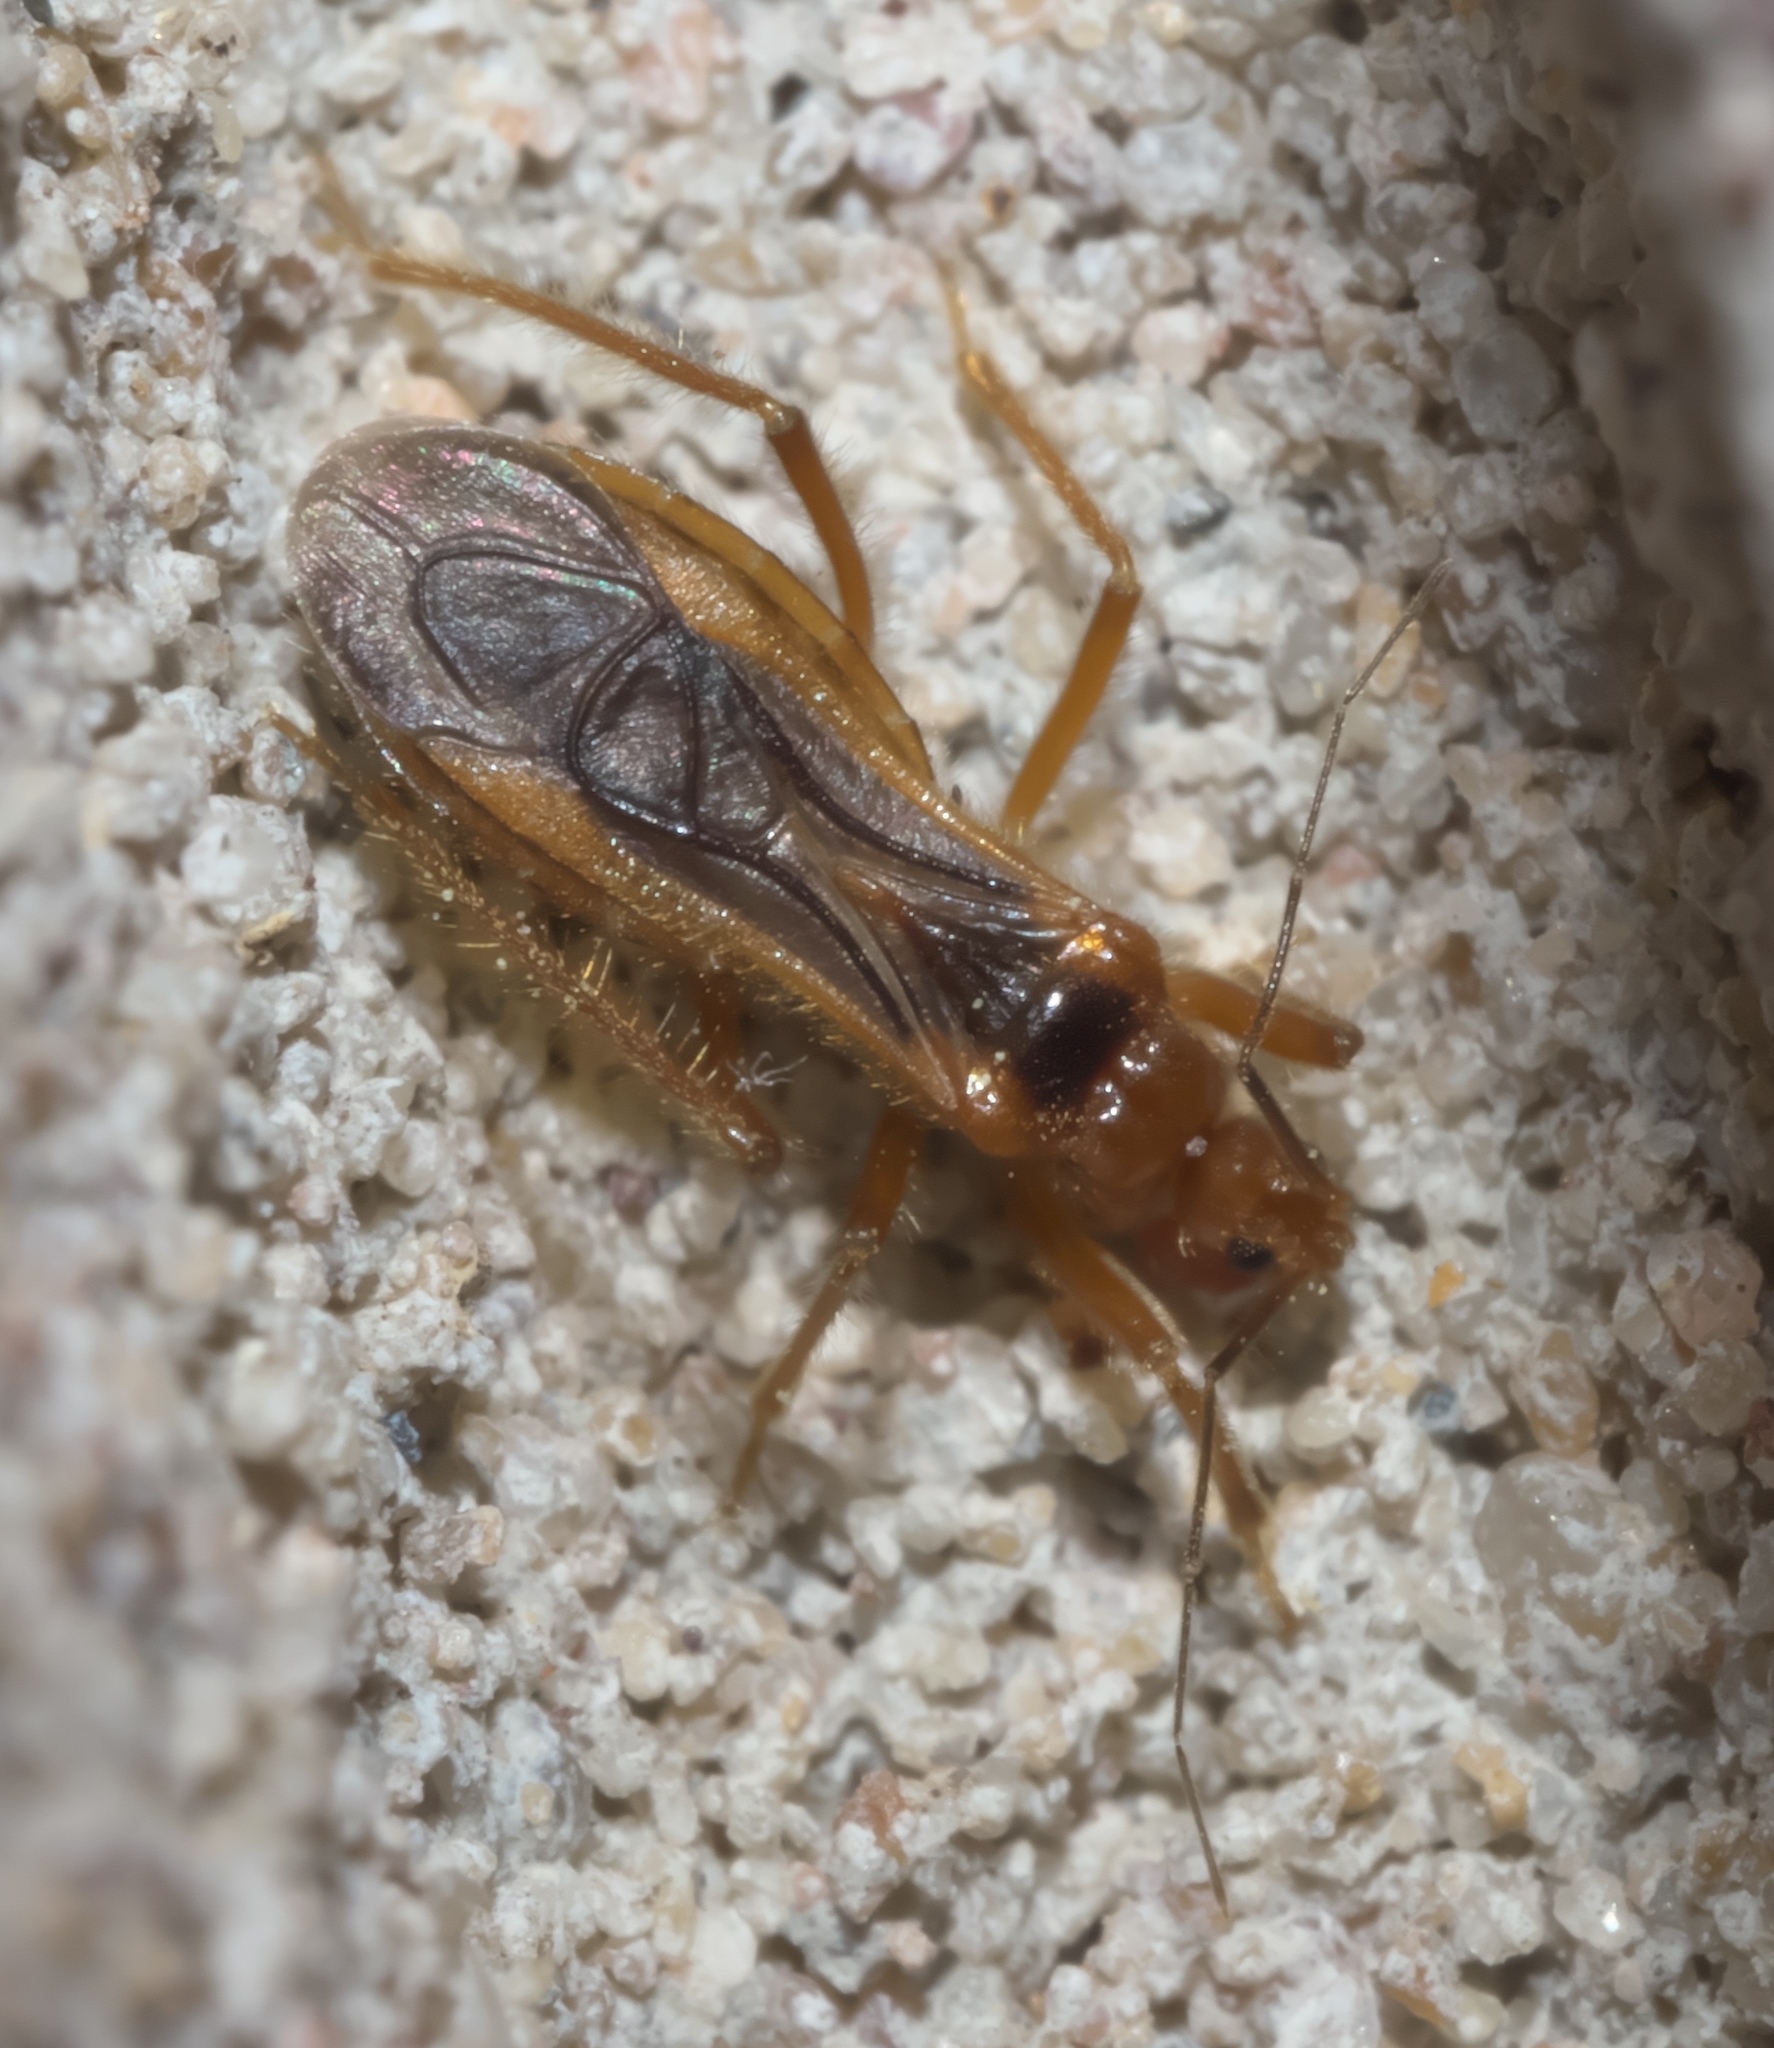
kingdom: Animalia
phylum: Arthropoda
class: Insecta
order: Hemiptera
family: Reduviidae
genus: Oncerotrachelus
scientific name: Oncerotrachelus acuminatus
